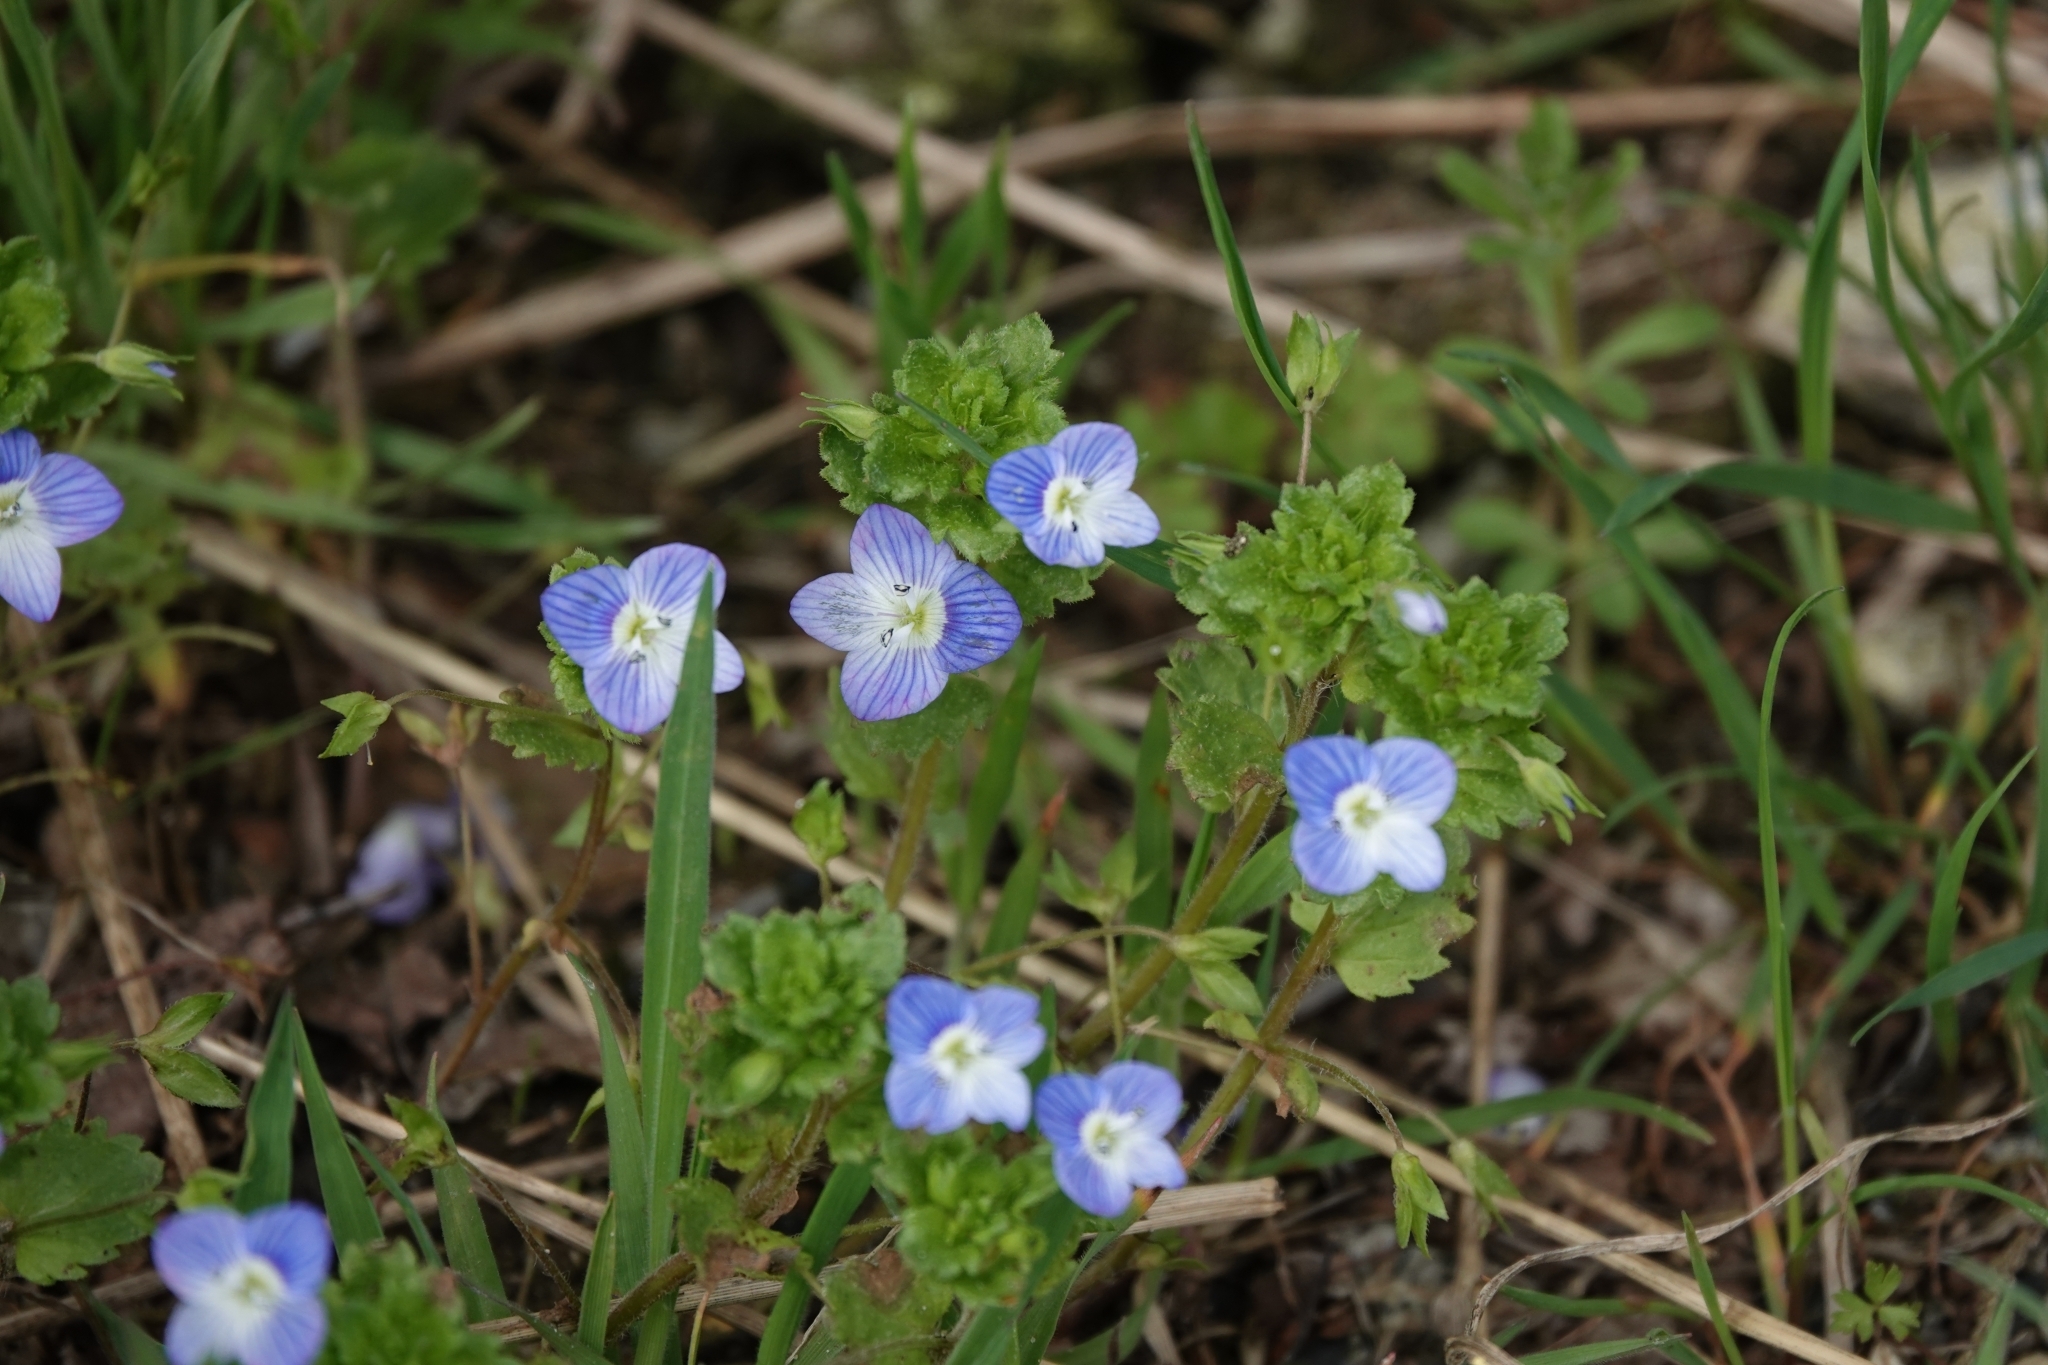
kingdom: Plantae
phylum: Tracheophyta
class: Magnoliopsida
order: Lamiales
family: Plantaginaceae
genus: Veronica
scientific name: Veronica persica
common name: Common field-speedwell
